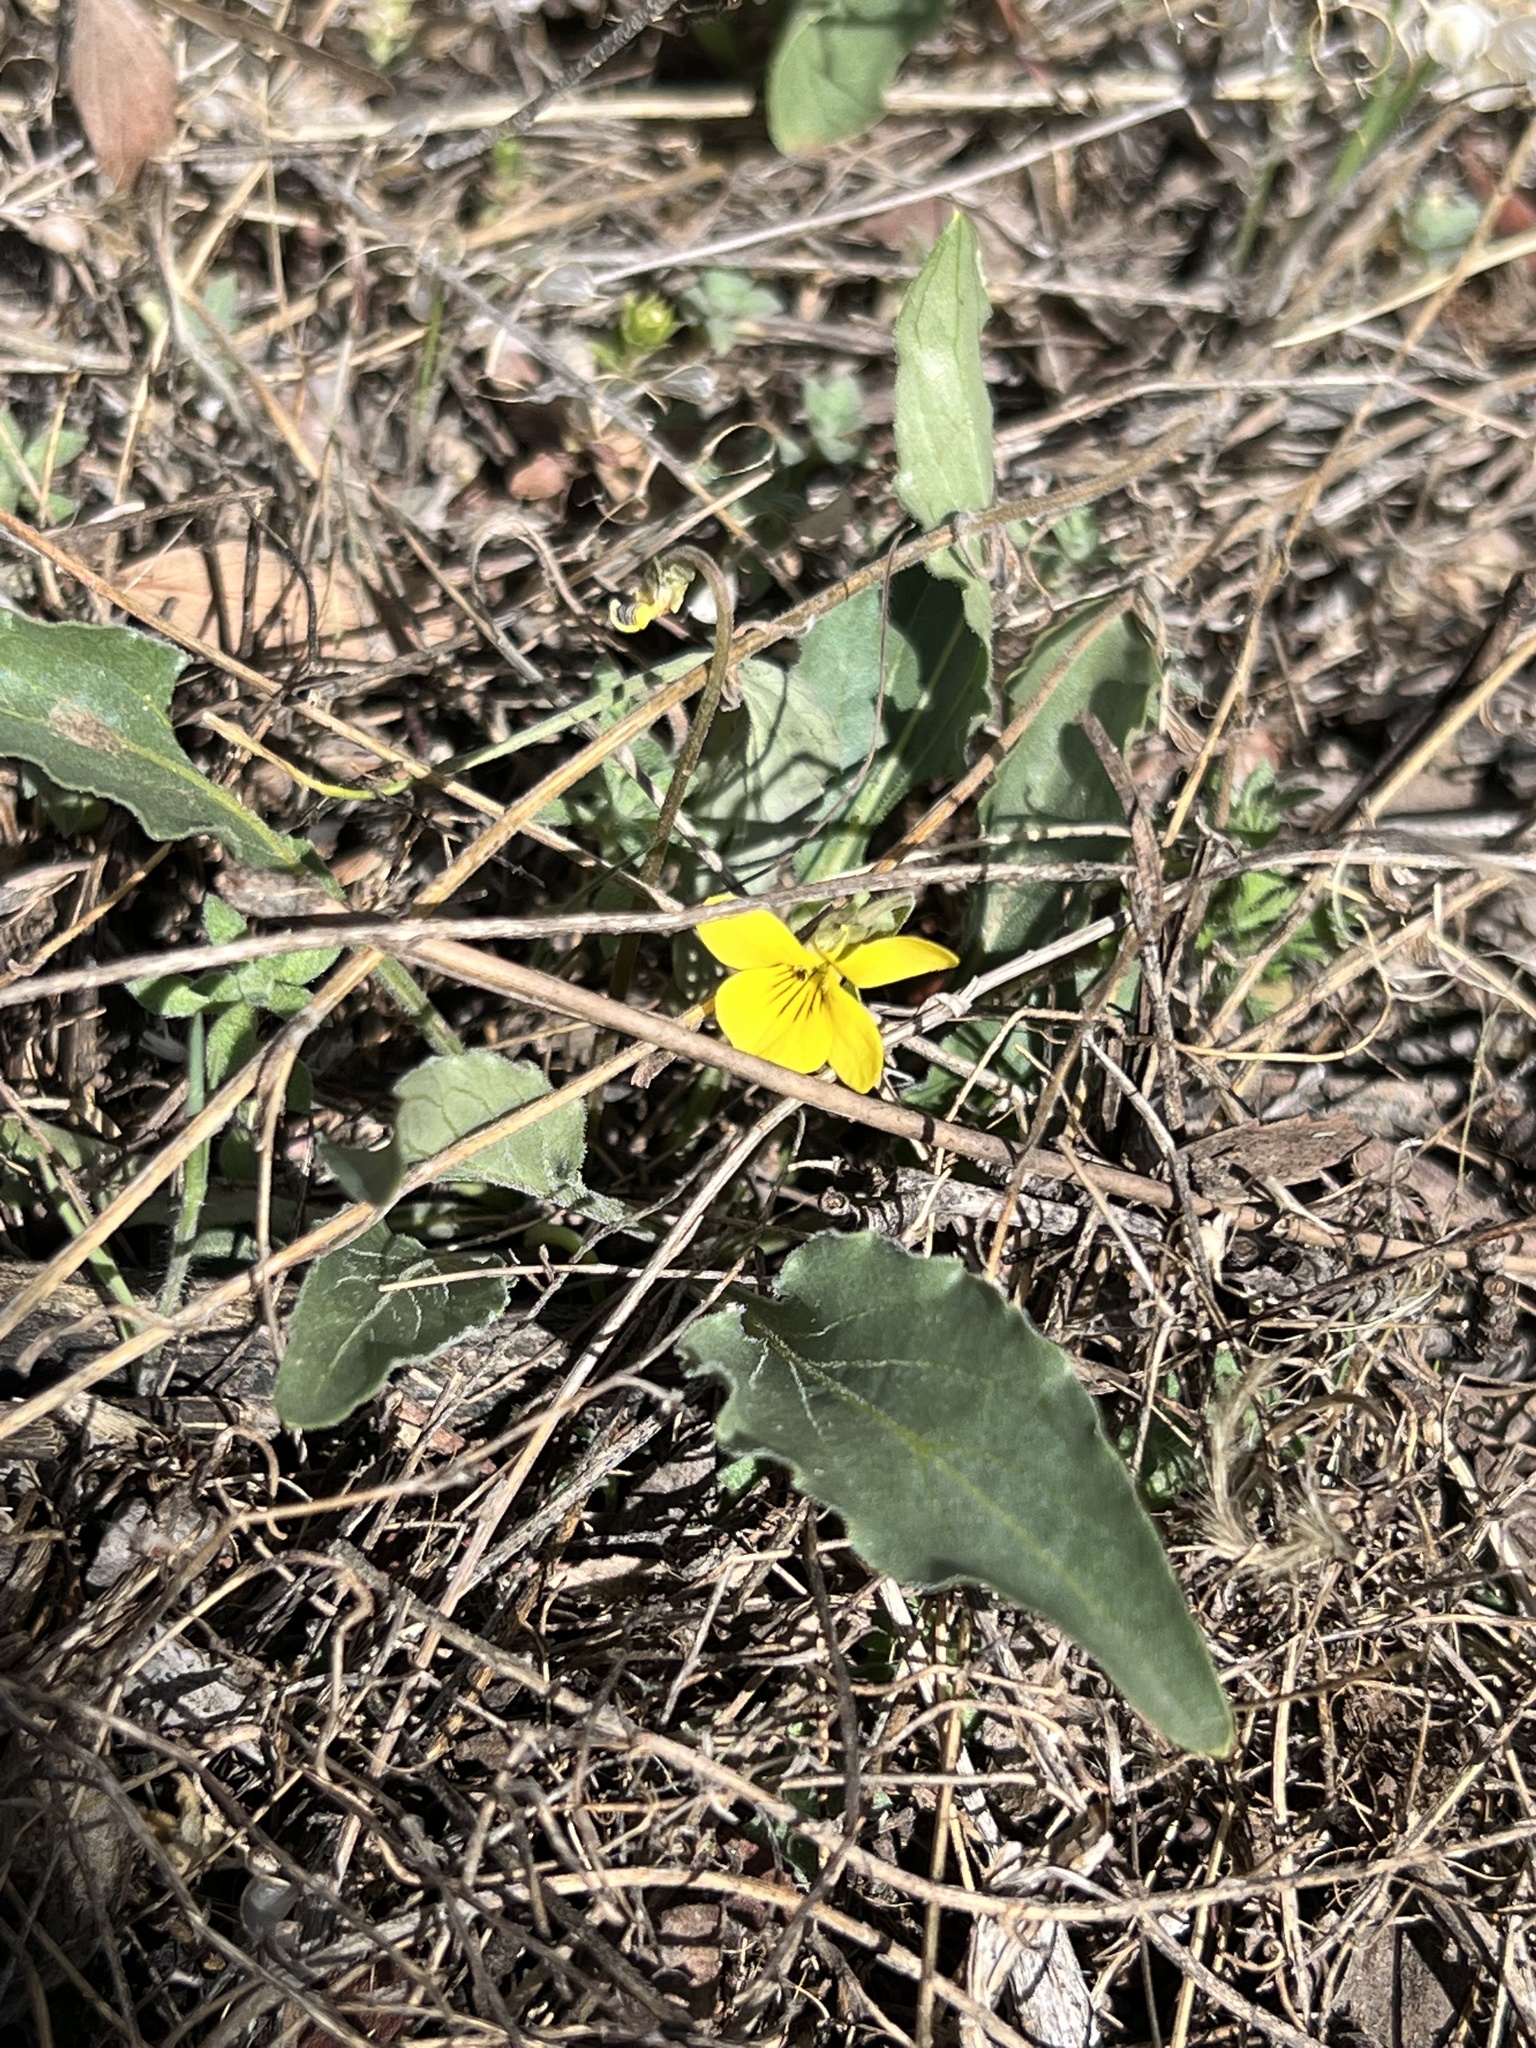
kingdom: Plantae
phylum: Tracheophyta
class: Magnoliopsida
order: Malpighiales
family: Violaceae
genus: Viola
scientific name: Viola nuttallii
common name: Yellow prairie violet
